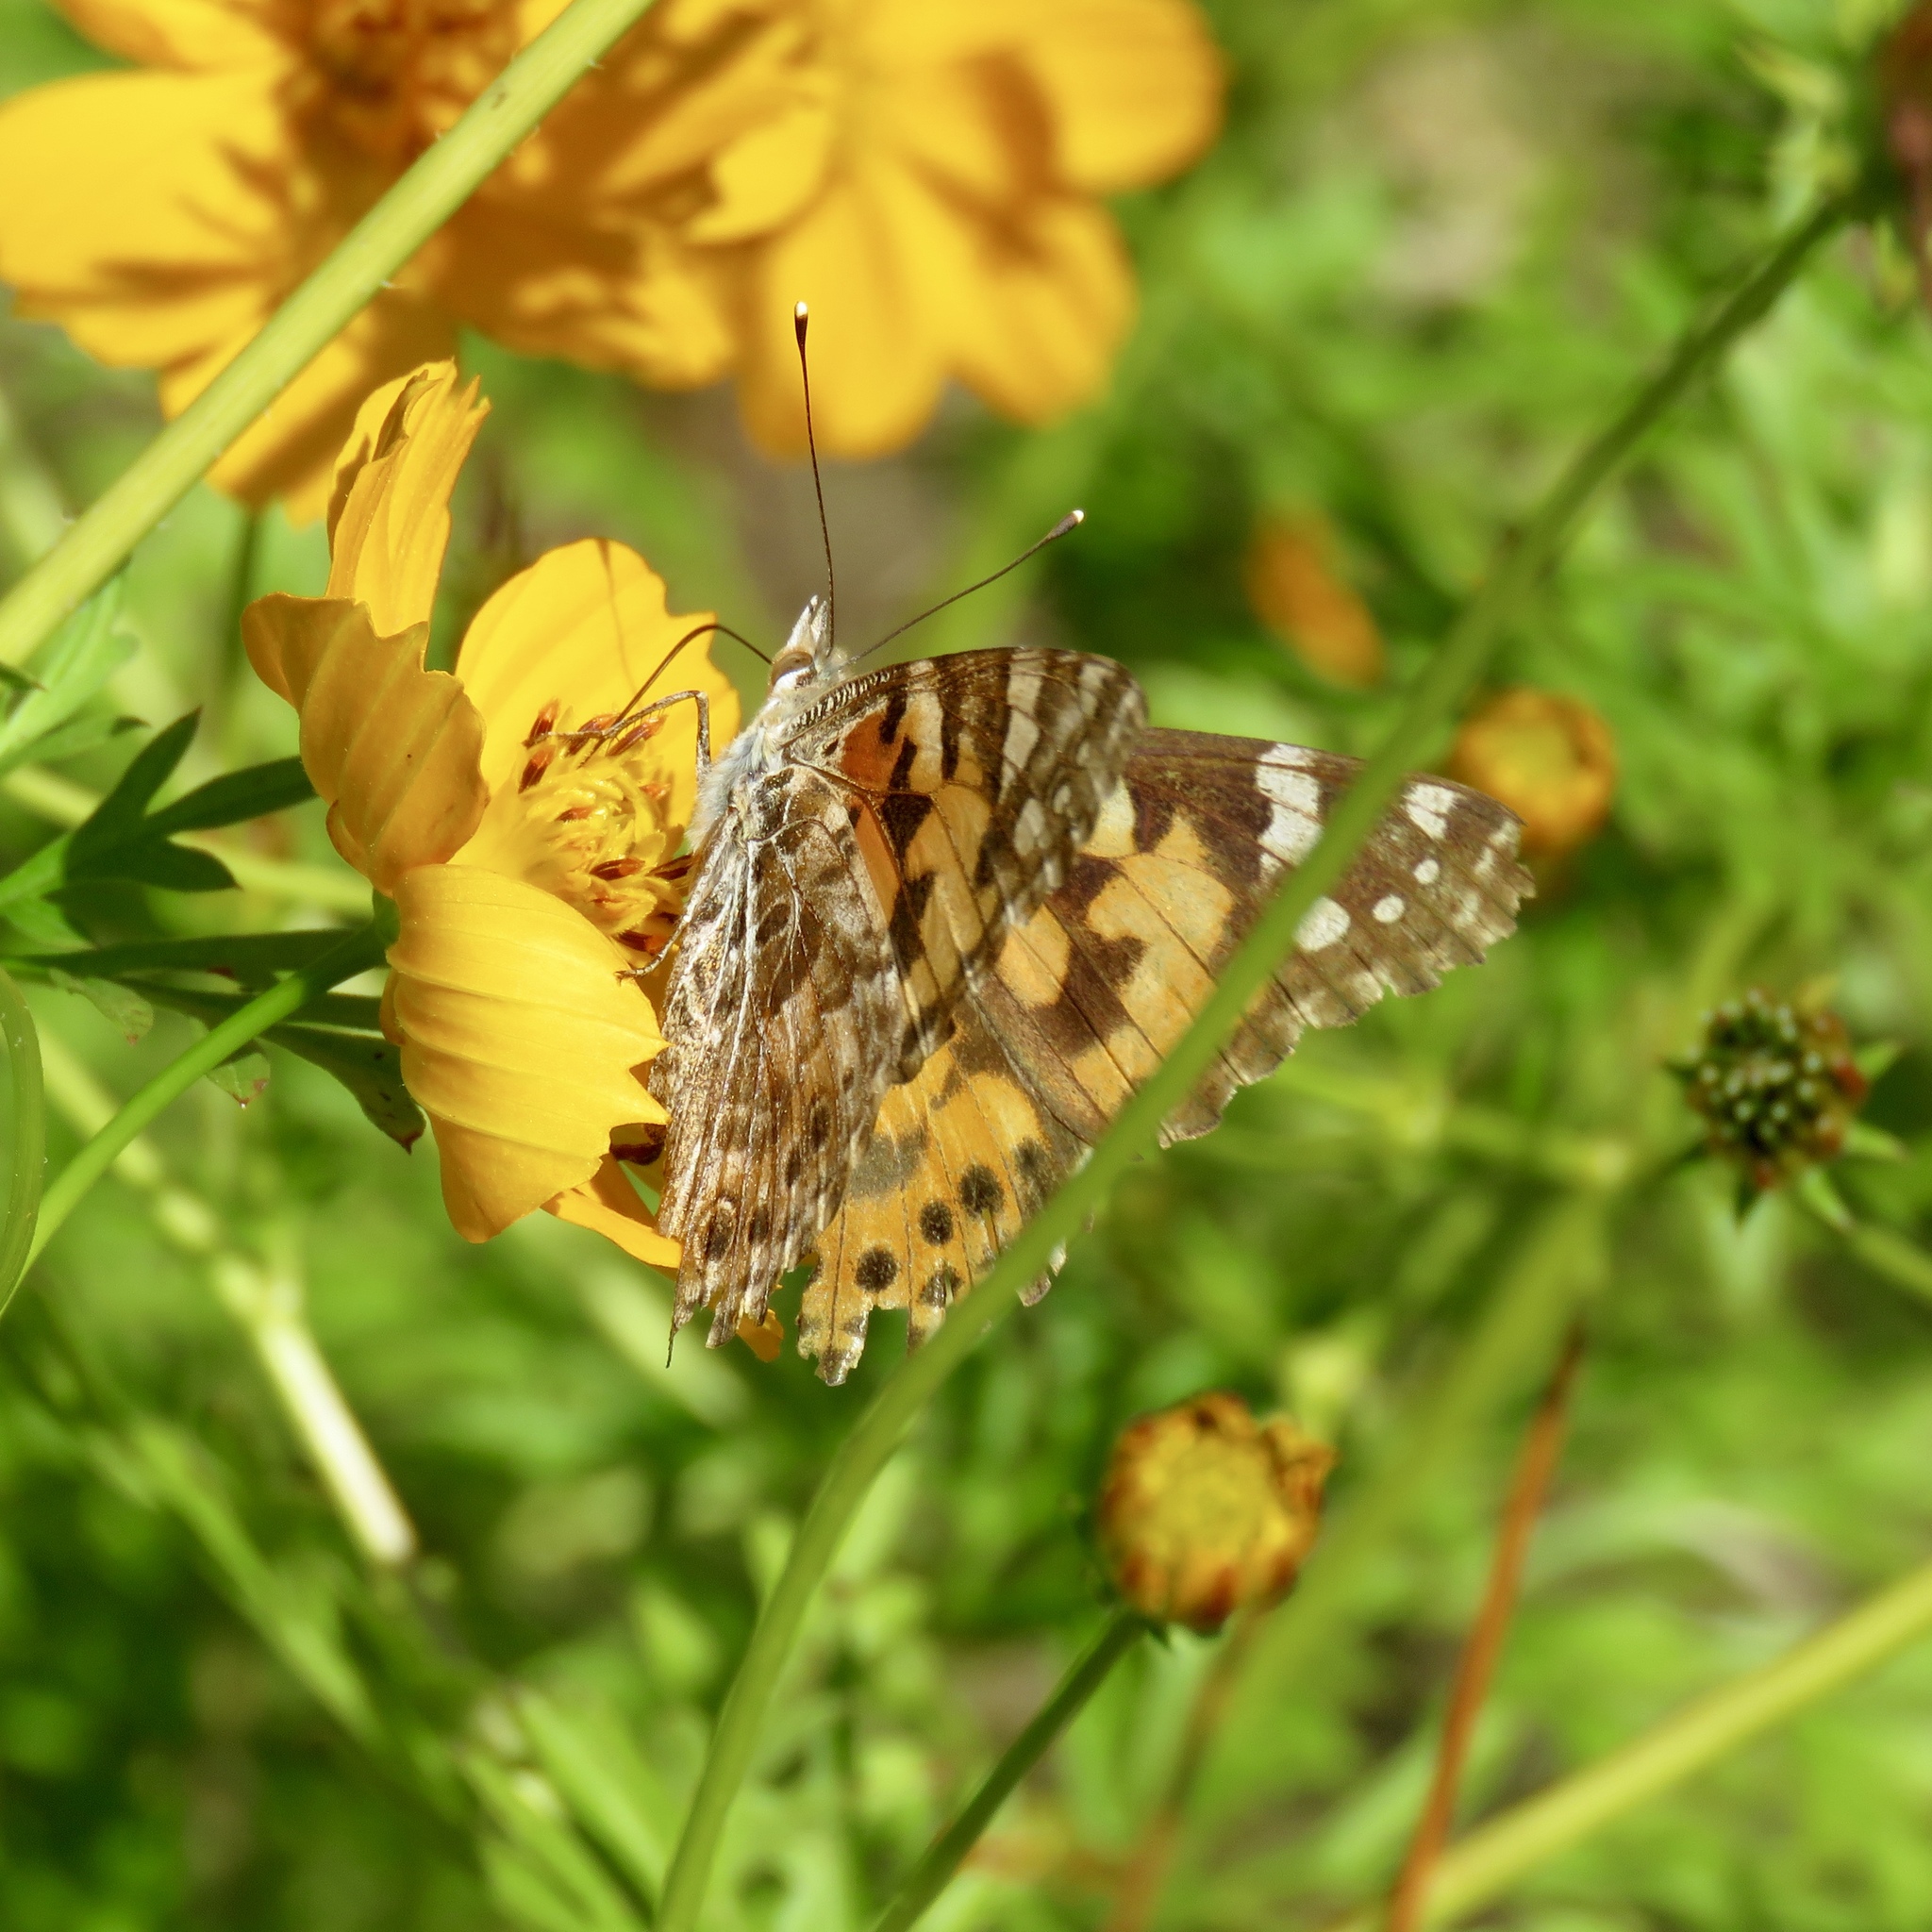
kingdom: Animalia
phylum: Arthropoda
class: Insecta
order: Lepidoptera
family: Nymphalidae
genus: Vanessa
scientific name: Vanessa cardui
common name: Painted lady
